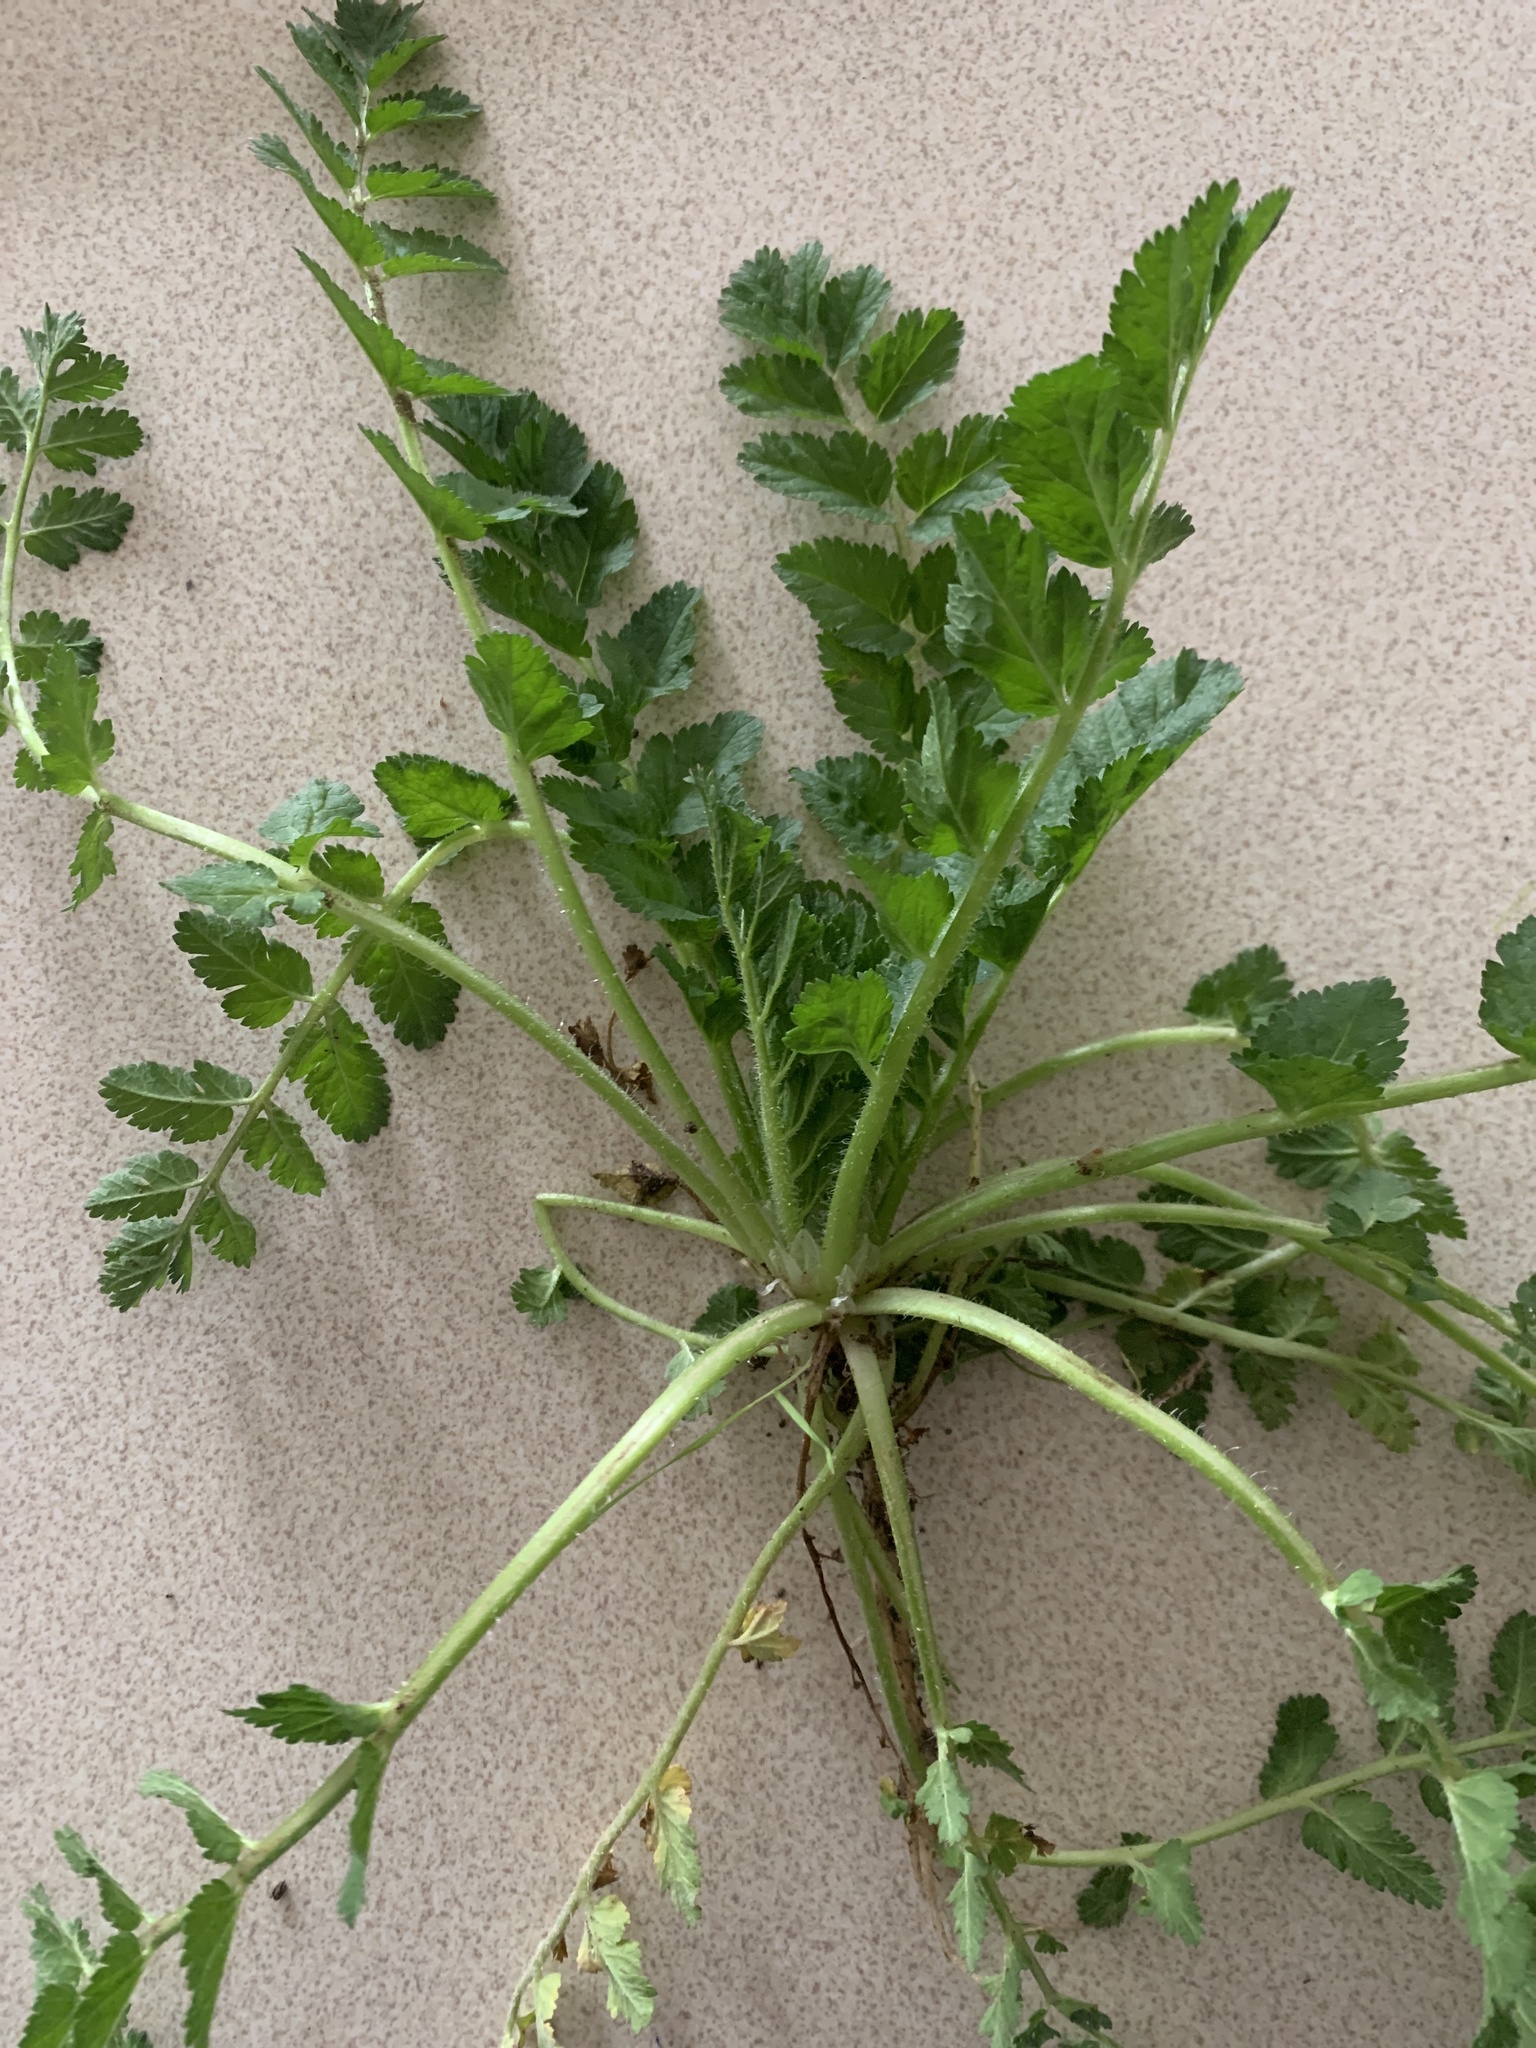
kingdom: Plantae
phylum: Tracheophyta
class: Magnoliopsida
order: Geraniales
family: Geraniaceae
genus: Erodium
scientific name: Erodium moschatum
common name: Musk stork's-bill
